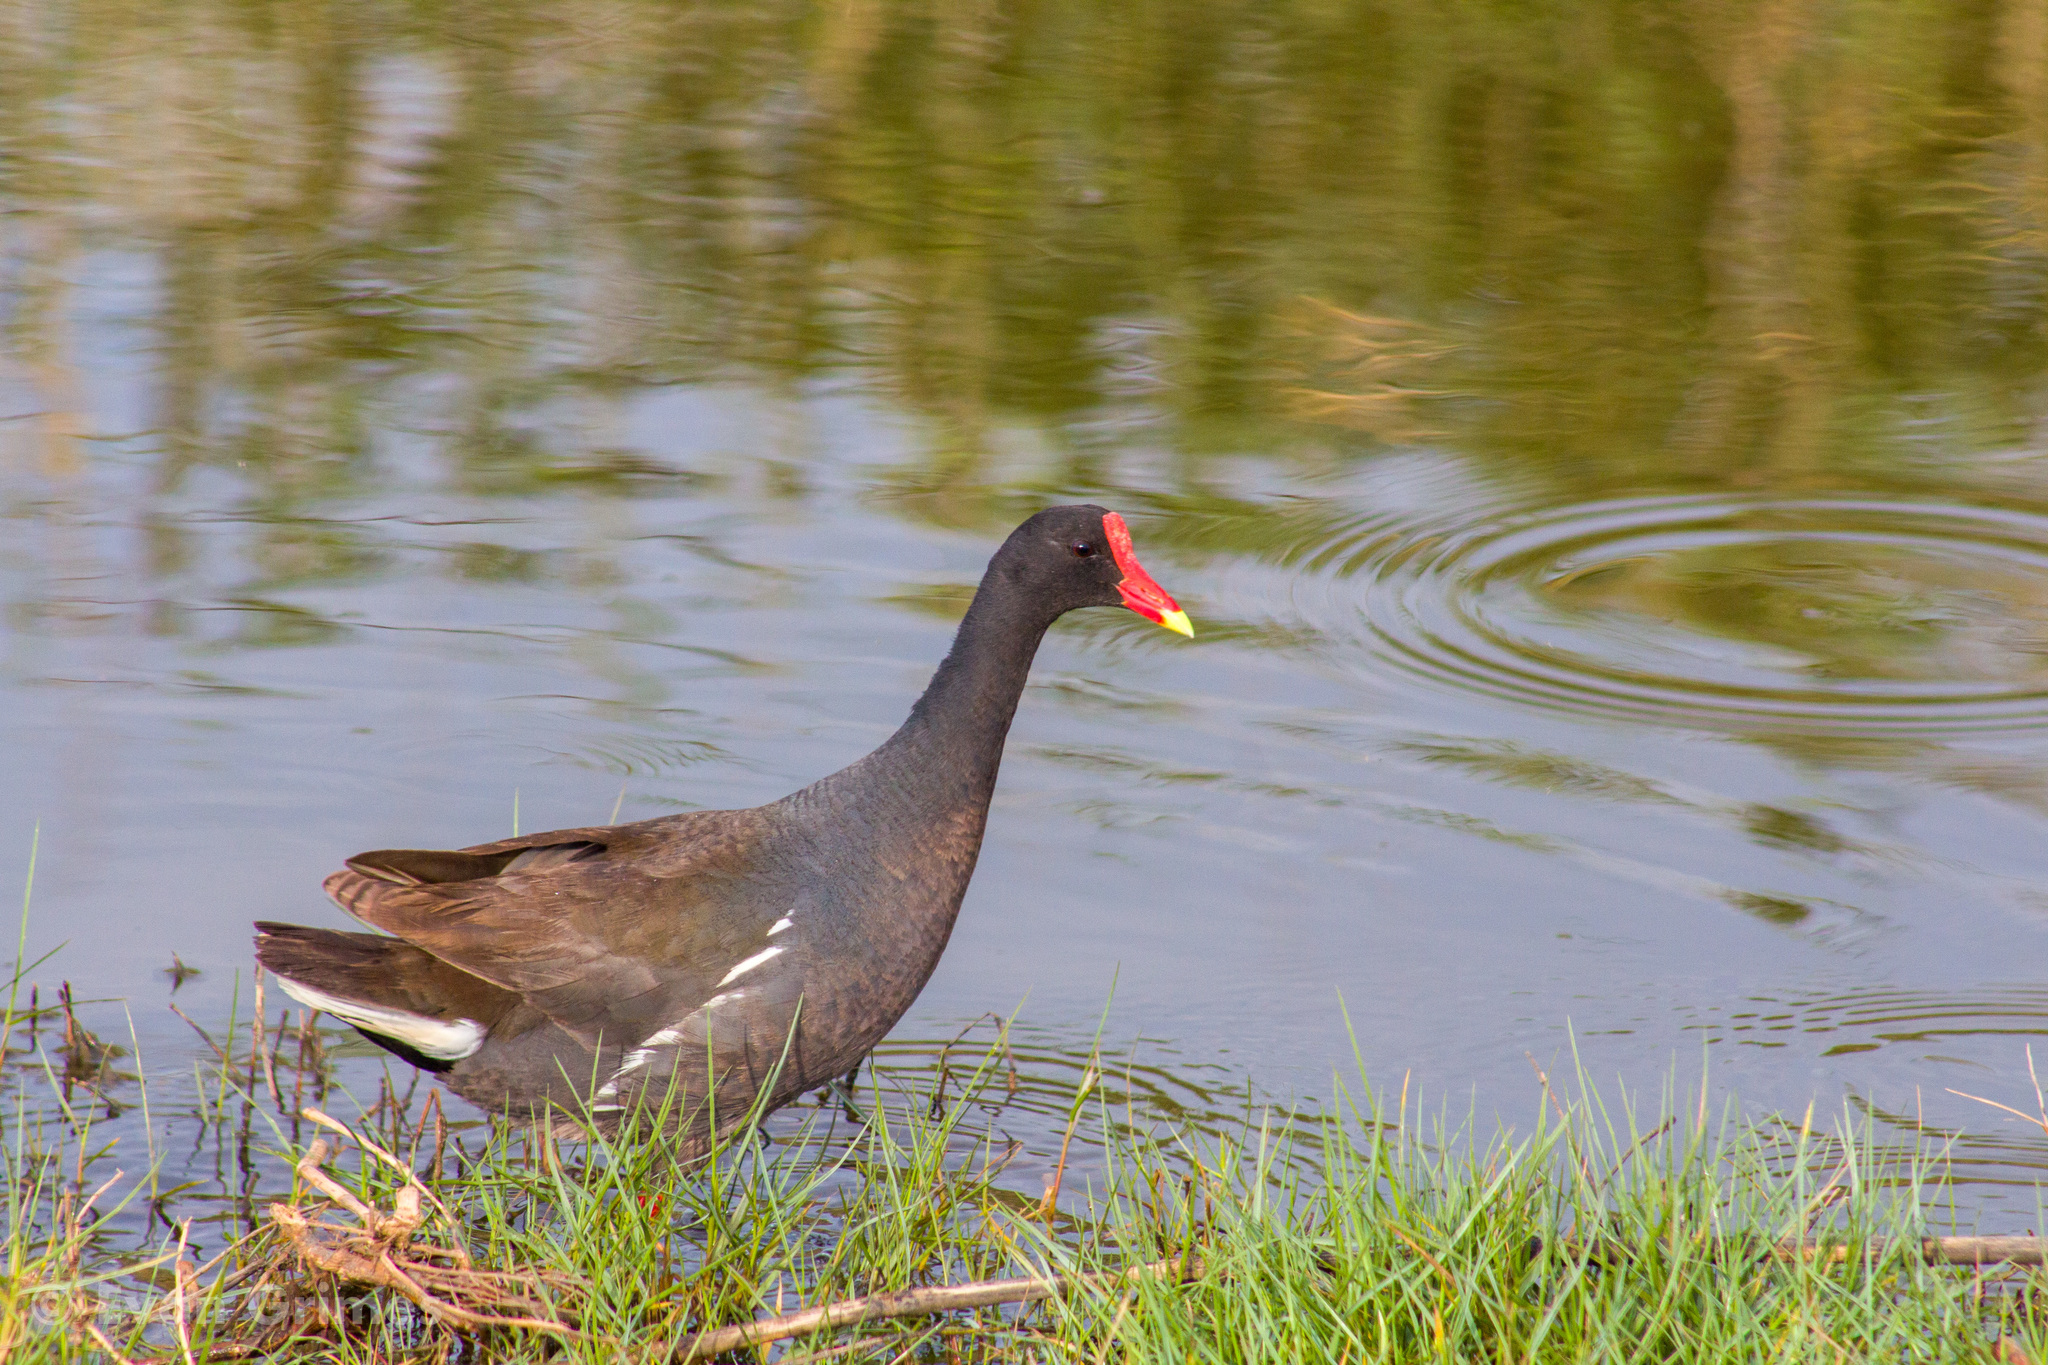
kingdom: Animalia
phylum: Chordata
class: Aves
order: Gruiformes
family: Rallidae
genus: Gallinula
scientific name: Gallinula chloropus
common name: Common moorhen
